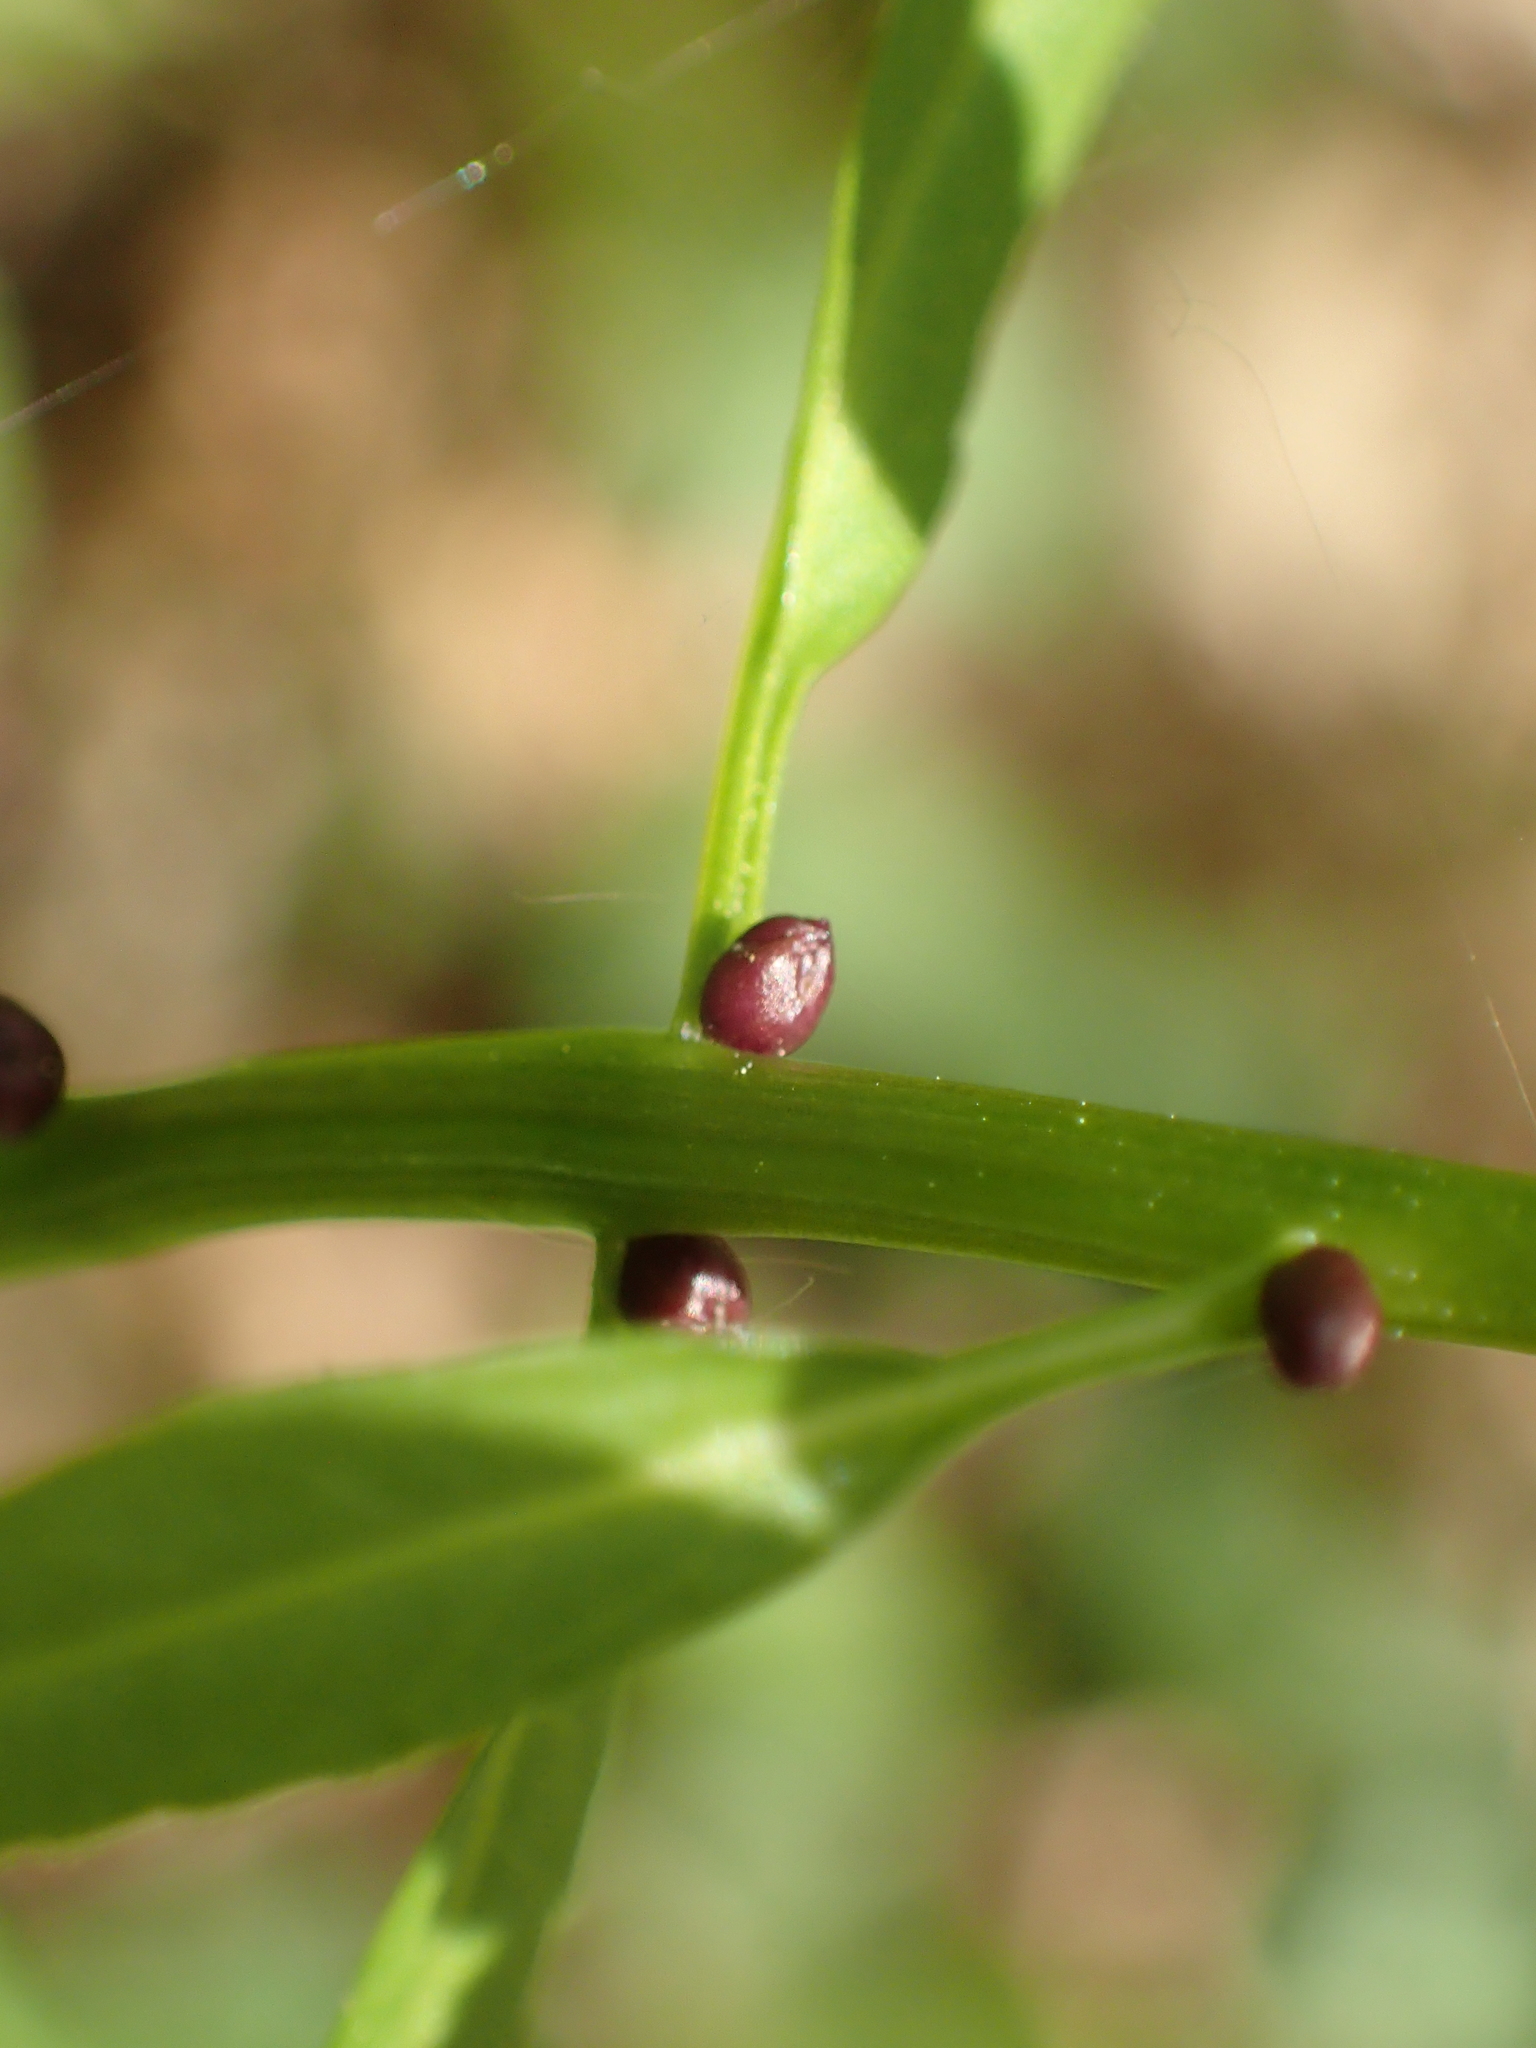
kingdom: Plantae
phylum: Tracheophyta
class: Magnoliopsida
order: Brassicales
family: Brassicaceae
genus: Cardamine
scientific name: Cardamine bulbifera
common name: Coralroot bittercress
